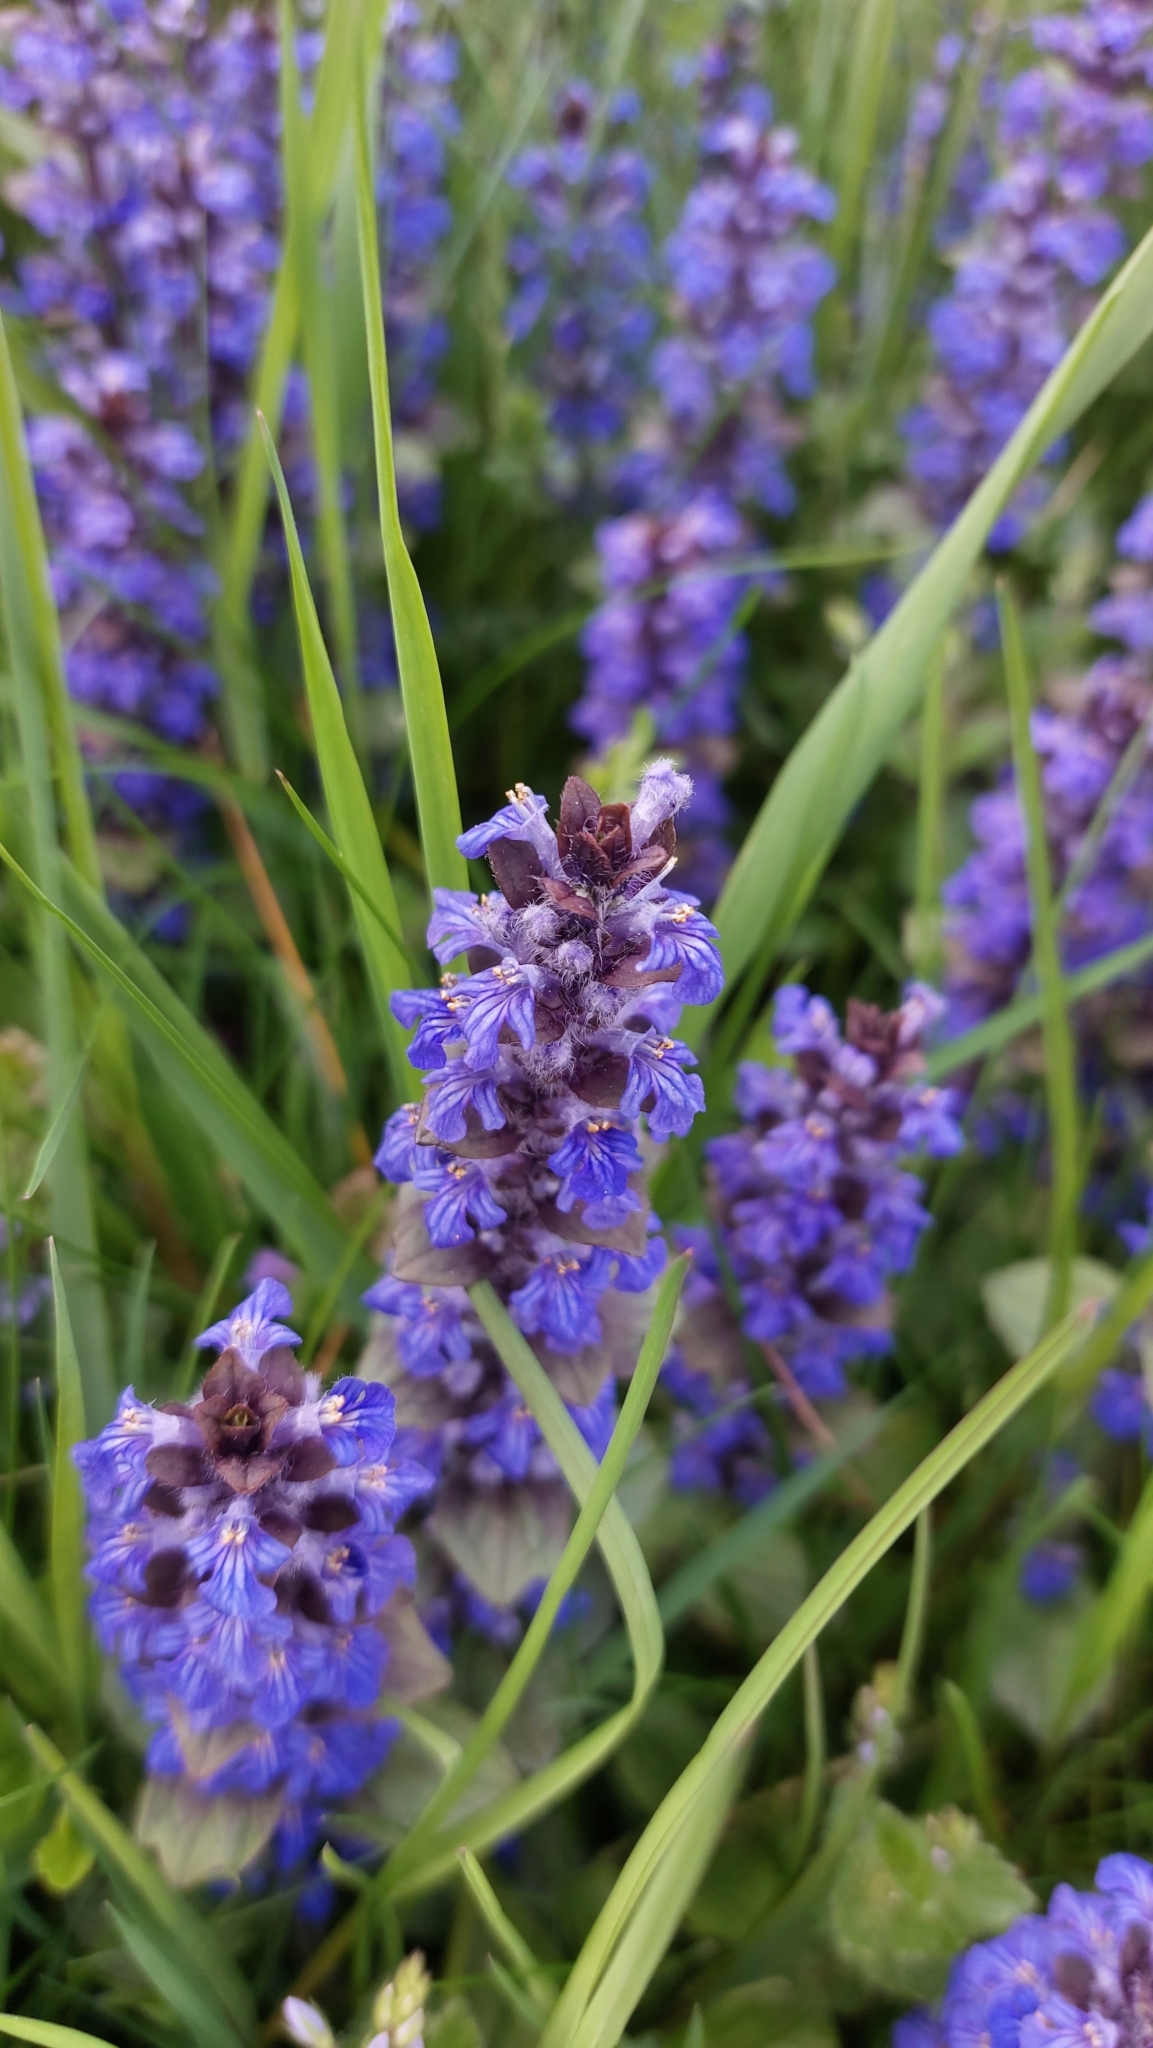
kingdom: Plantae
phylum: Tracheophyta
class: Magnoliopsida
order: Lamiales
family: Lamiaceae
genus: Ajuga
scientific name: Ajuga reptans
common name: Bugle
